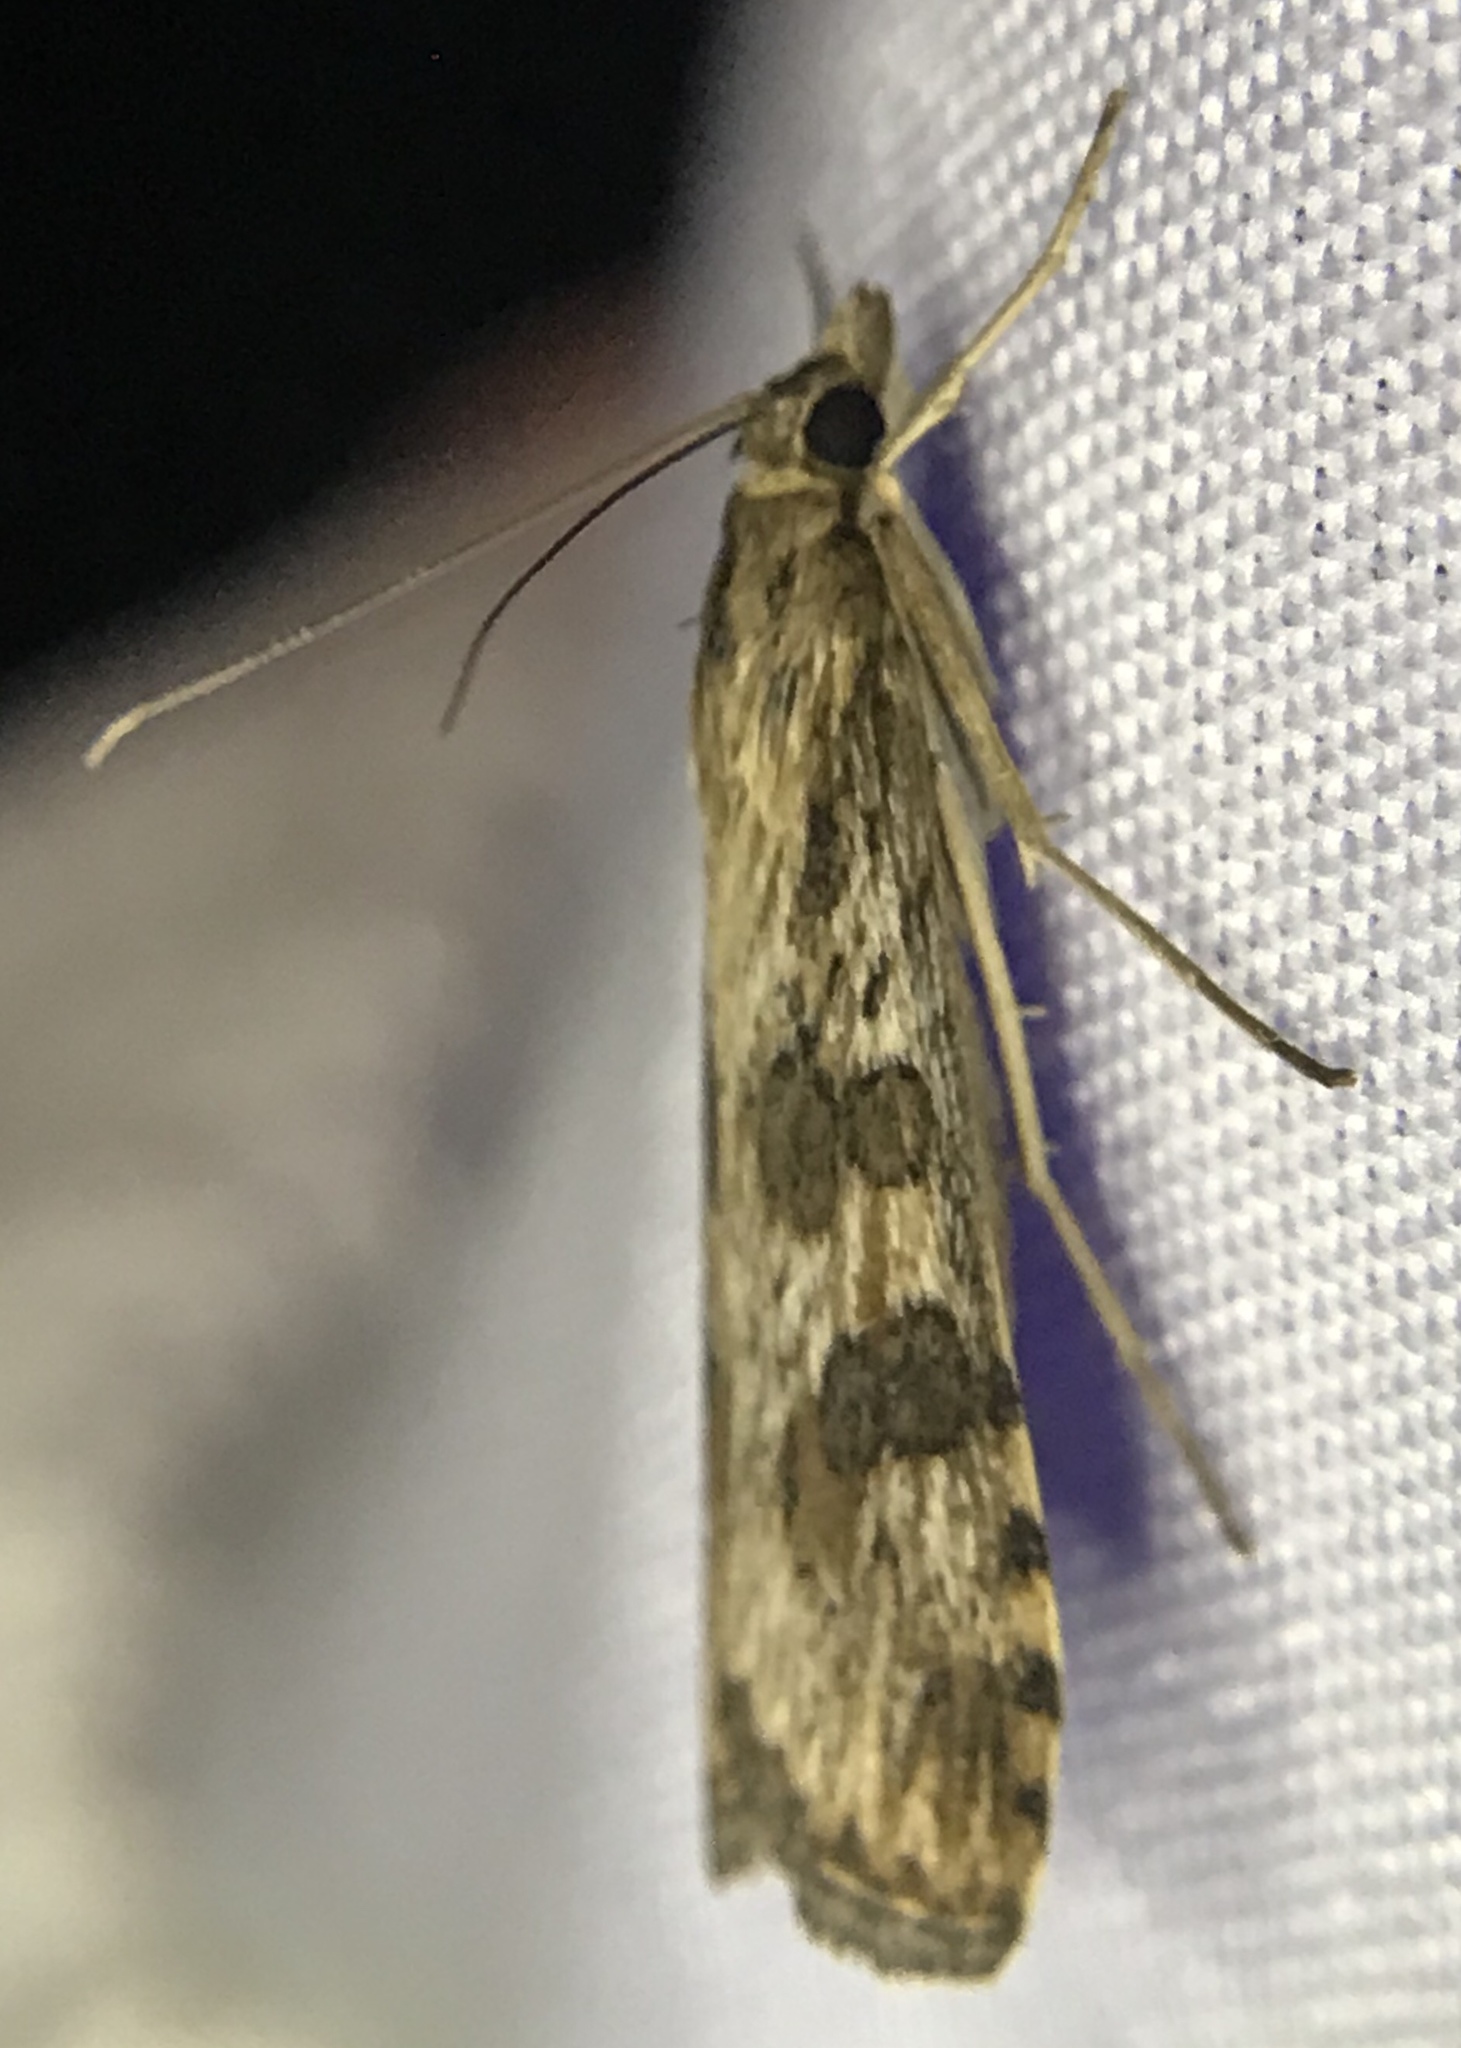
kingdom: Animalia
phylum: Arthropoda
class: Insecta
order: Lepidoptera
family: Crambidae
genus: Nomophila
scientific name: Nomophila nearctica
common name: American rush veneer
